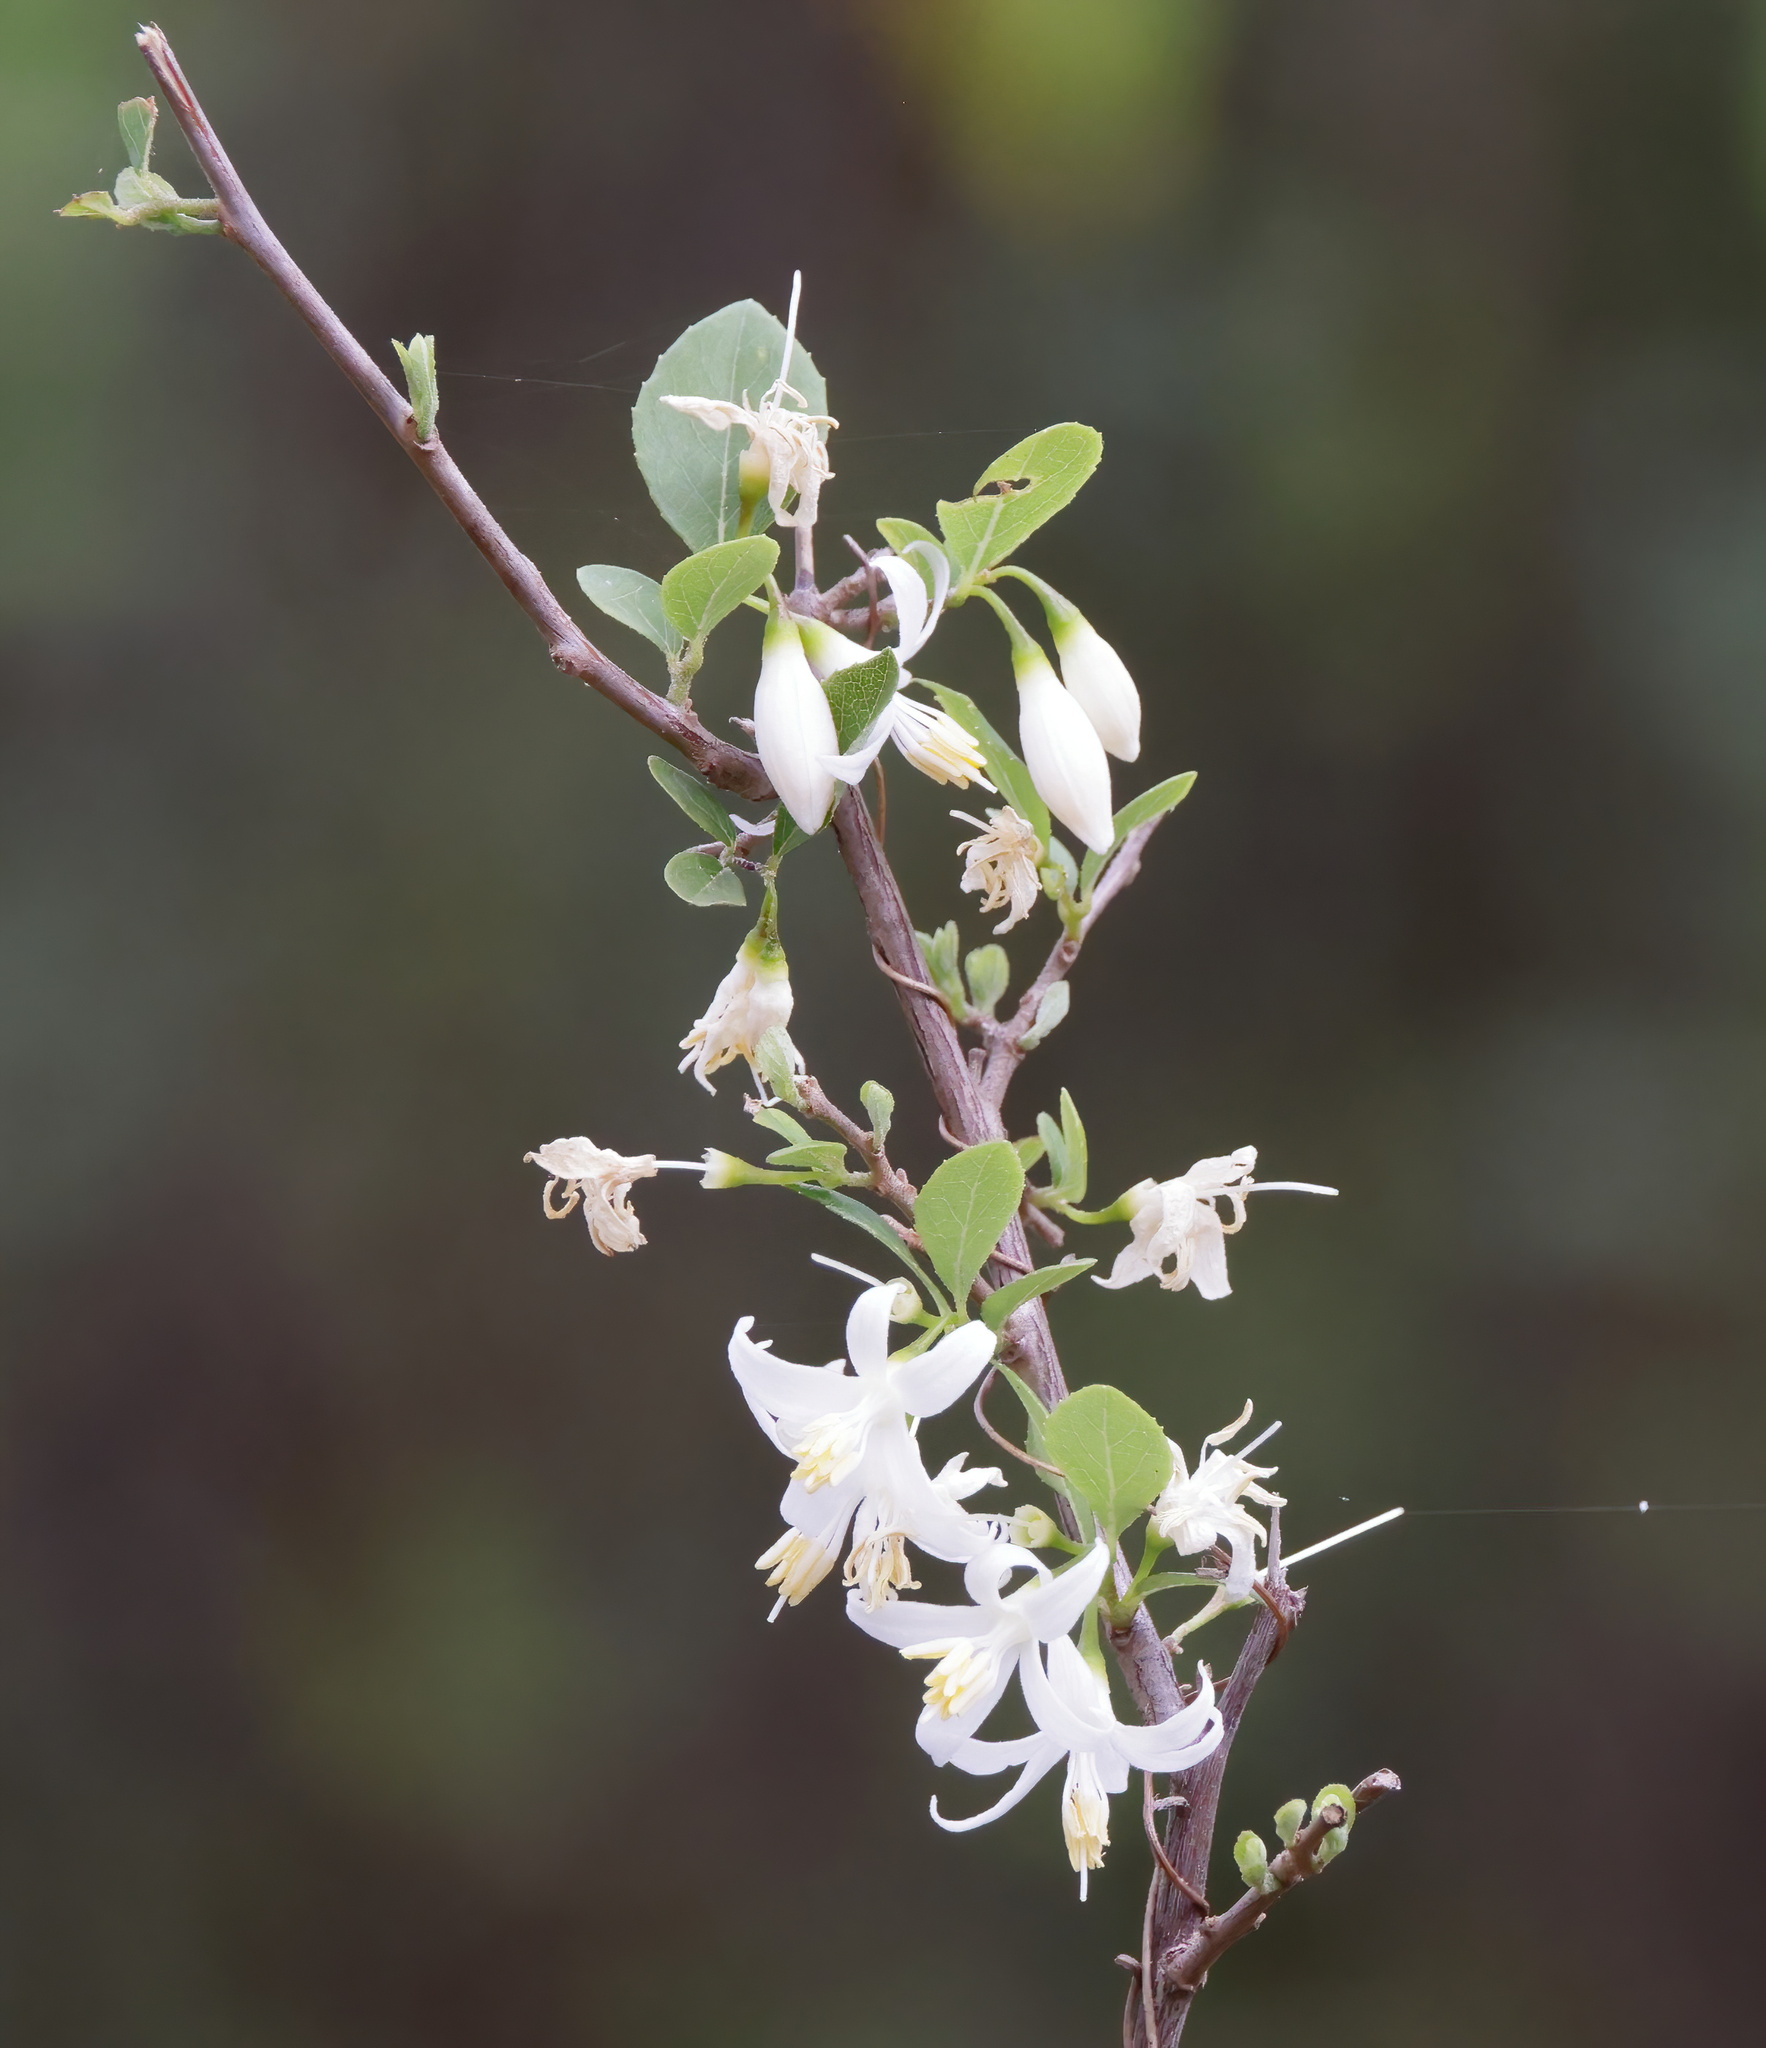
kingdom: Plantae
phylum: Tracheophyta
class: Magnoliopsida
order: Ericales
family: Styracaceae
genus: Styrax
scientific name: Styrax americanus
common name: American snowbell
